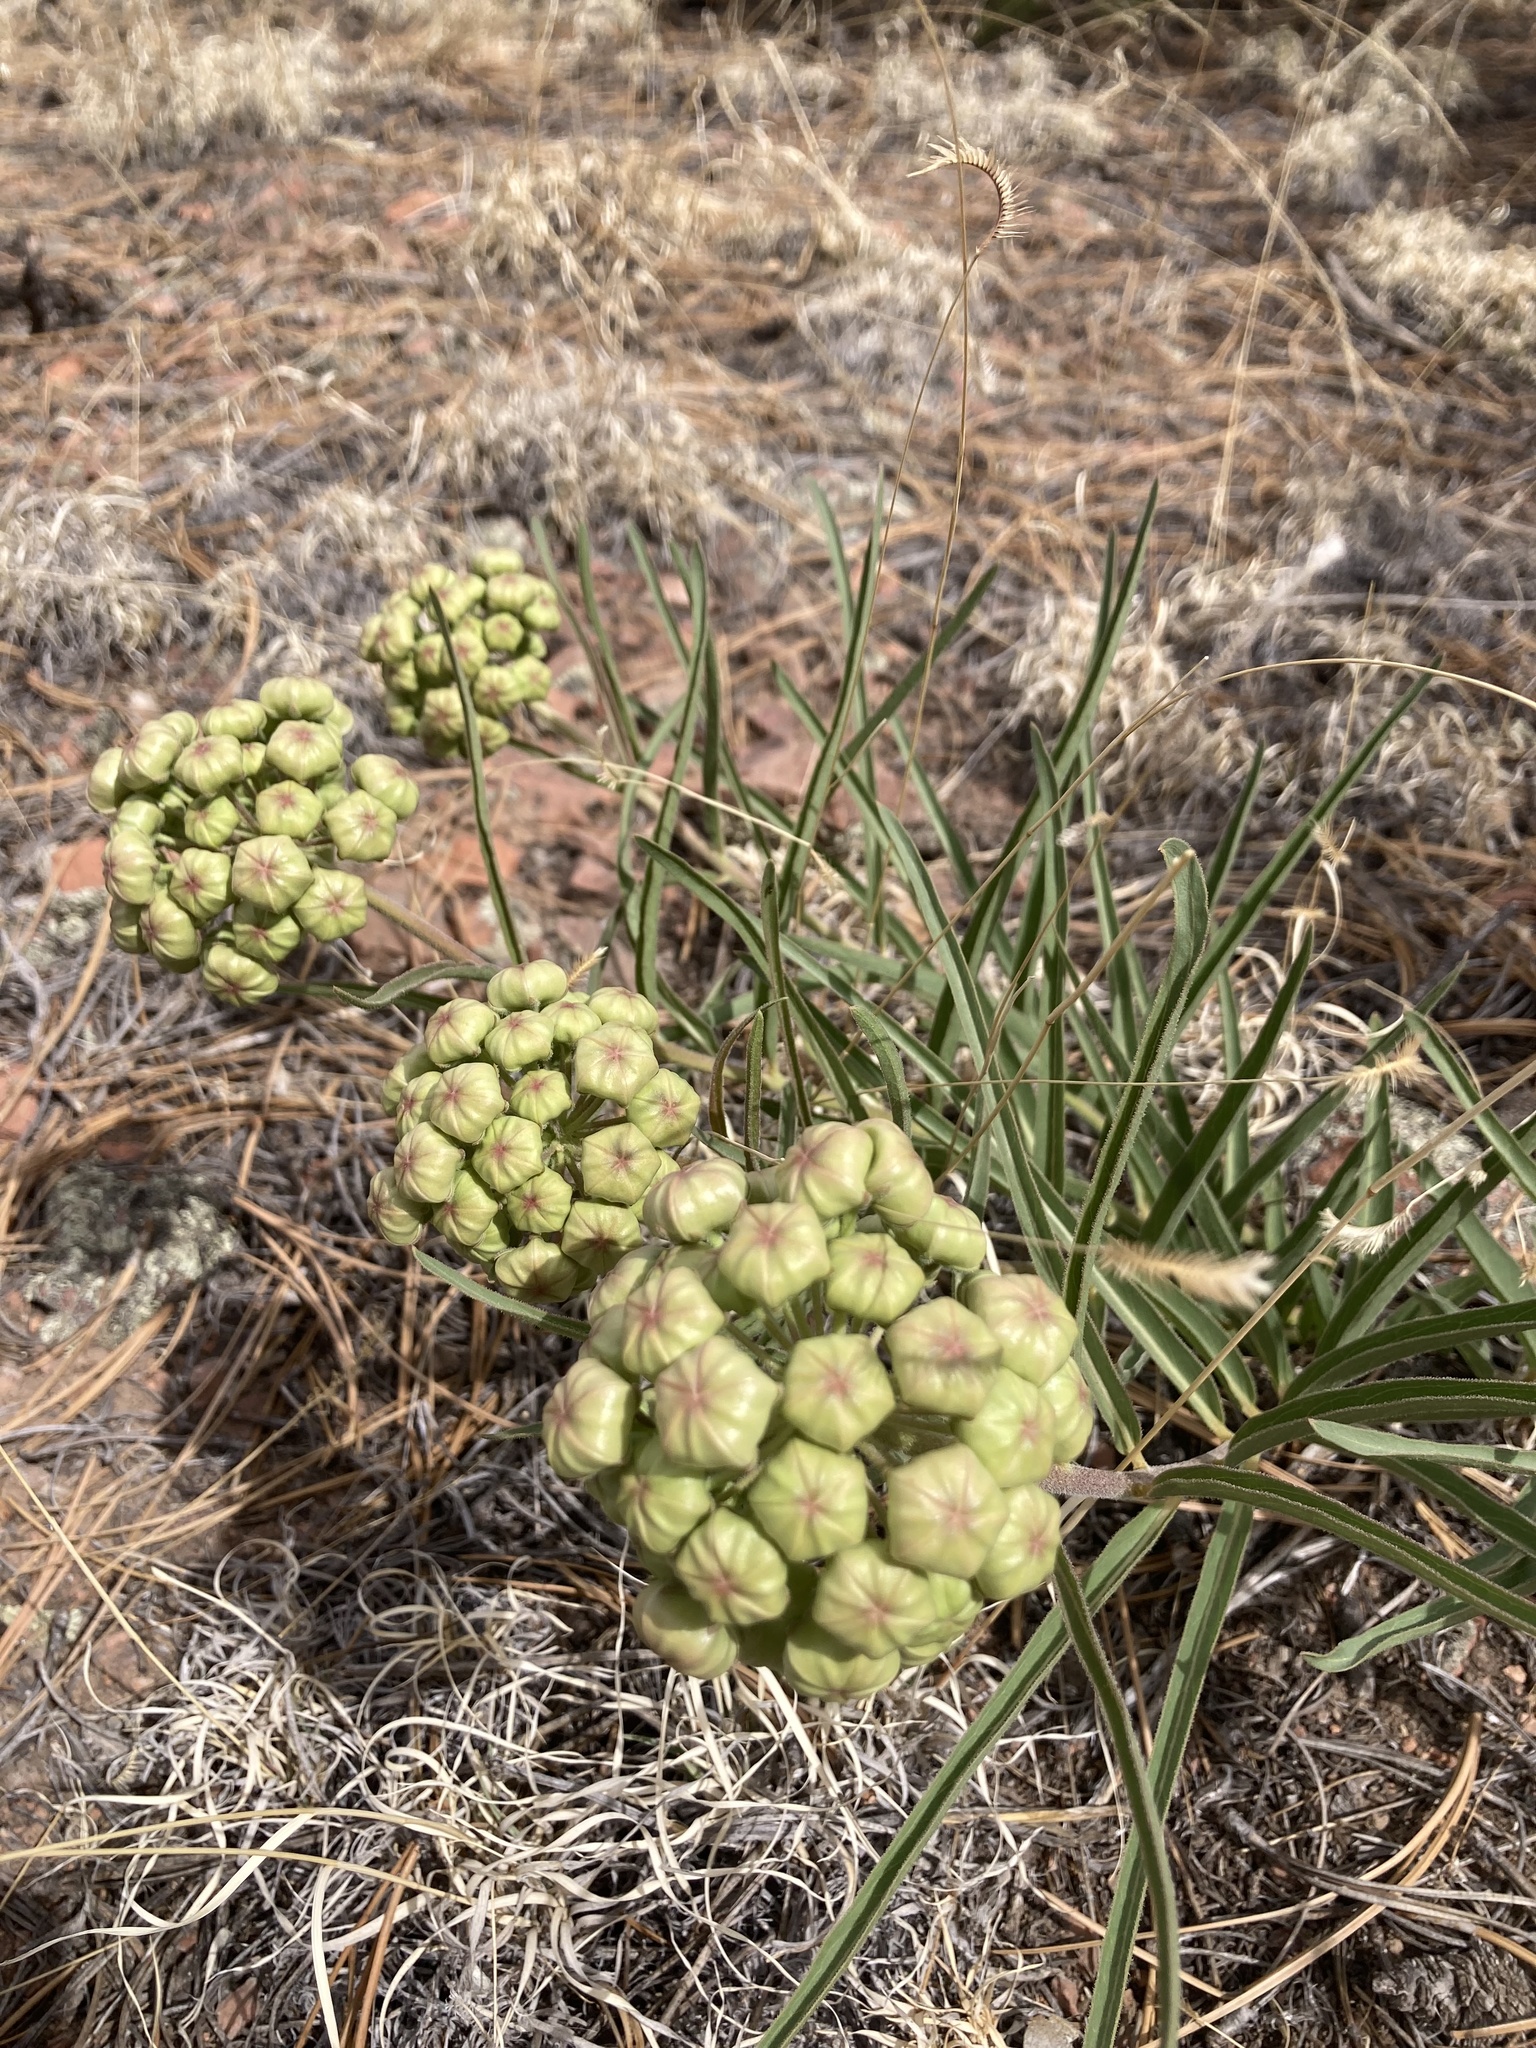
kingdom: Plantae
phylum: Tracheophyta
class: Magnoliopsida
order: Gentianales
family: Apocynaceae
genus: Asclepias
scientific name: Asclepias asperula
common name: Antelope horns
